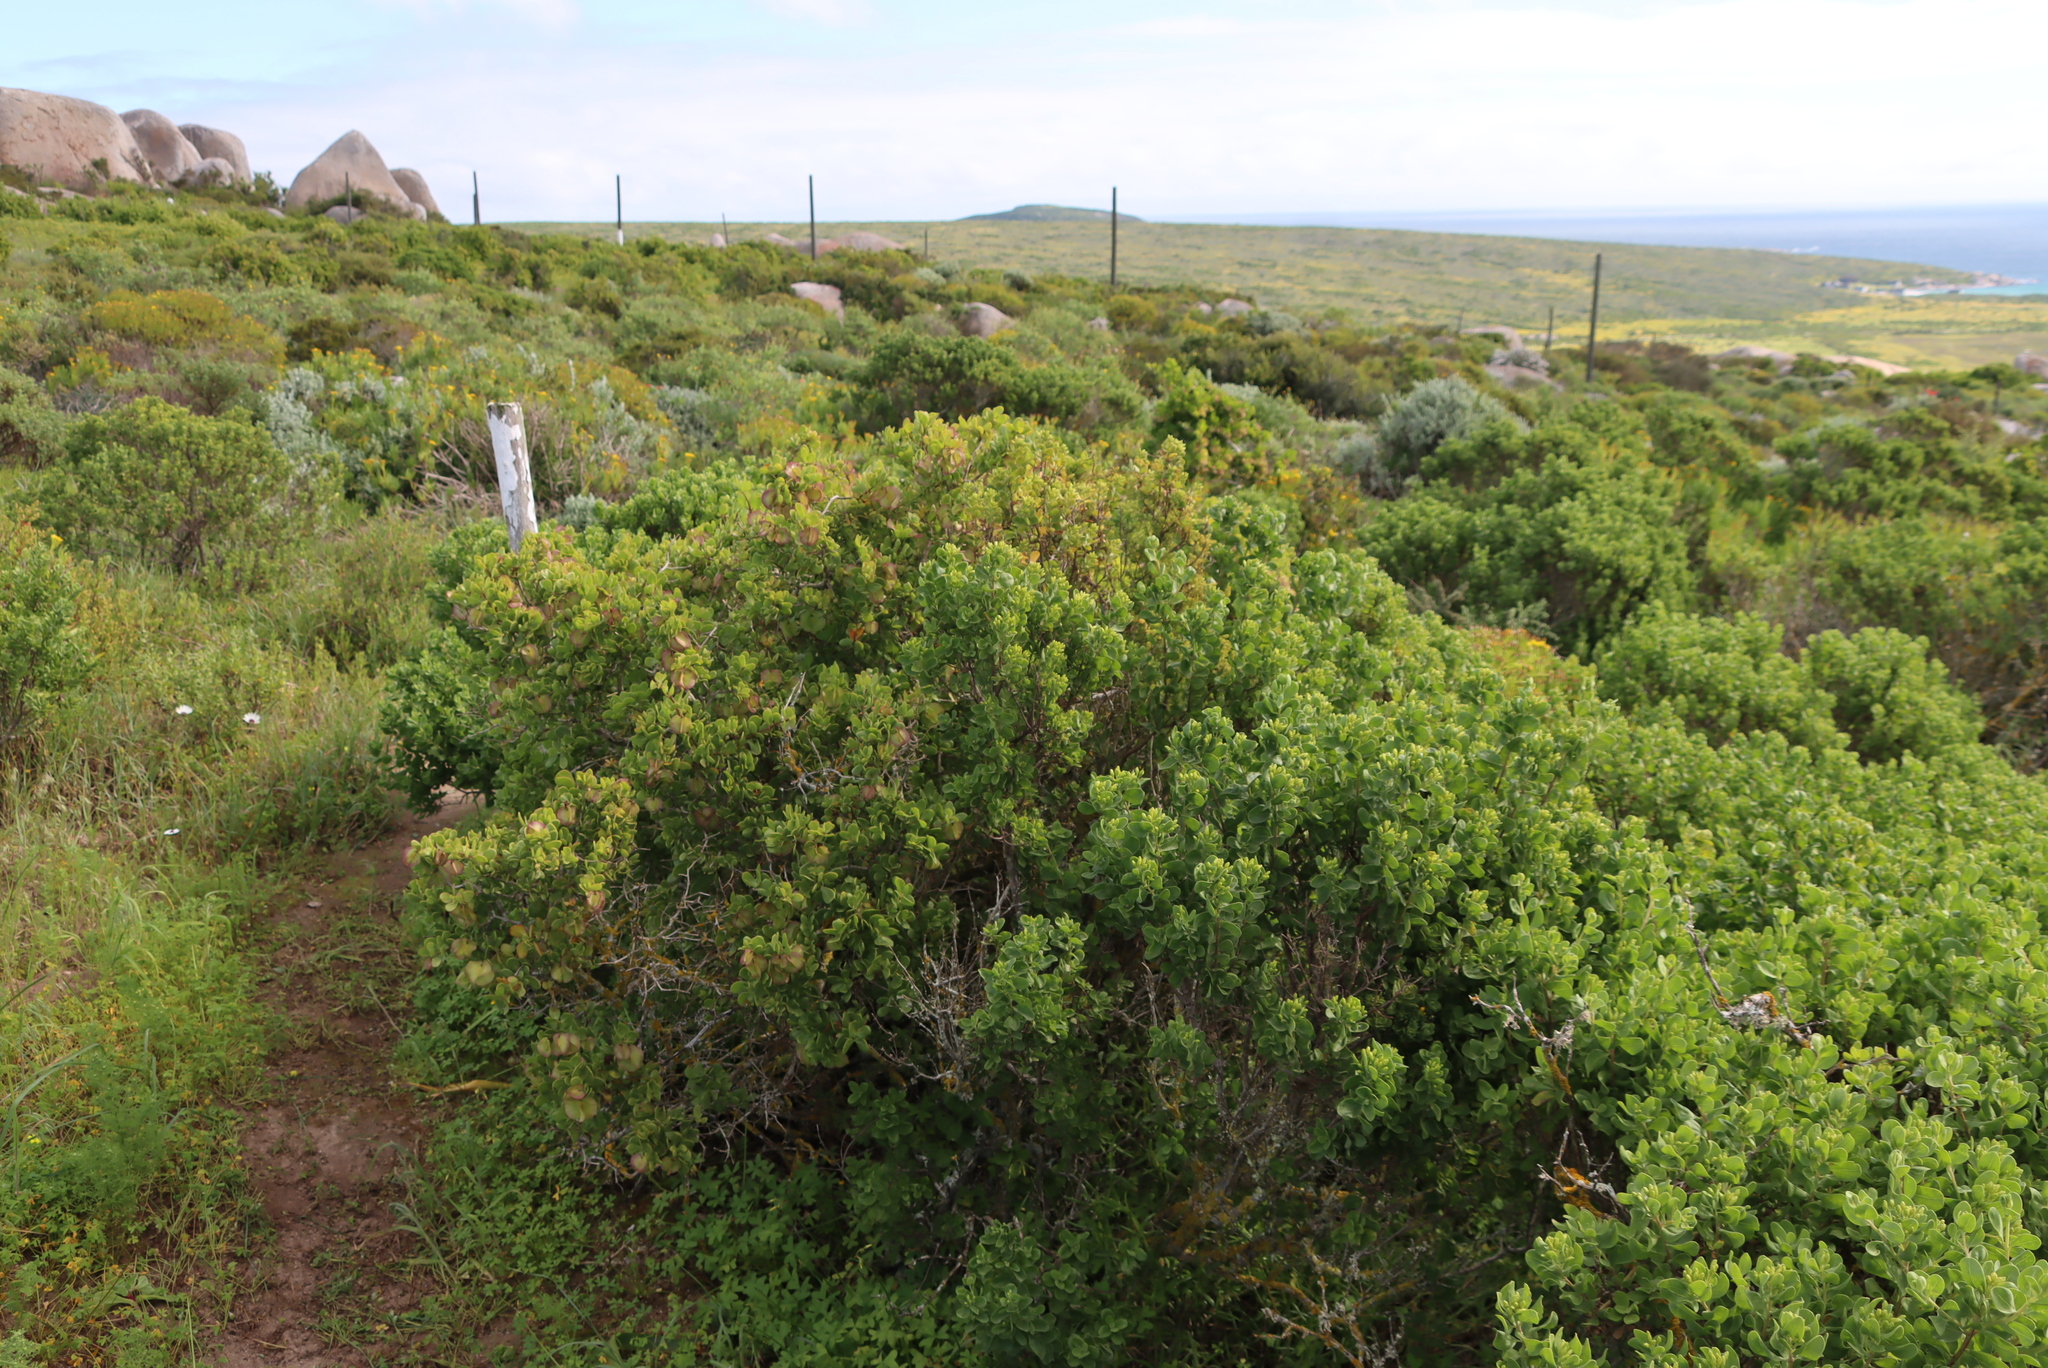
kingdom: Plantae
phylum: Tracheophyta
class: Magnoliopsida
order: Zygophyllales
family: Zygophyllaceae
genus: Roepera
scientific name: Roepera morgsana
